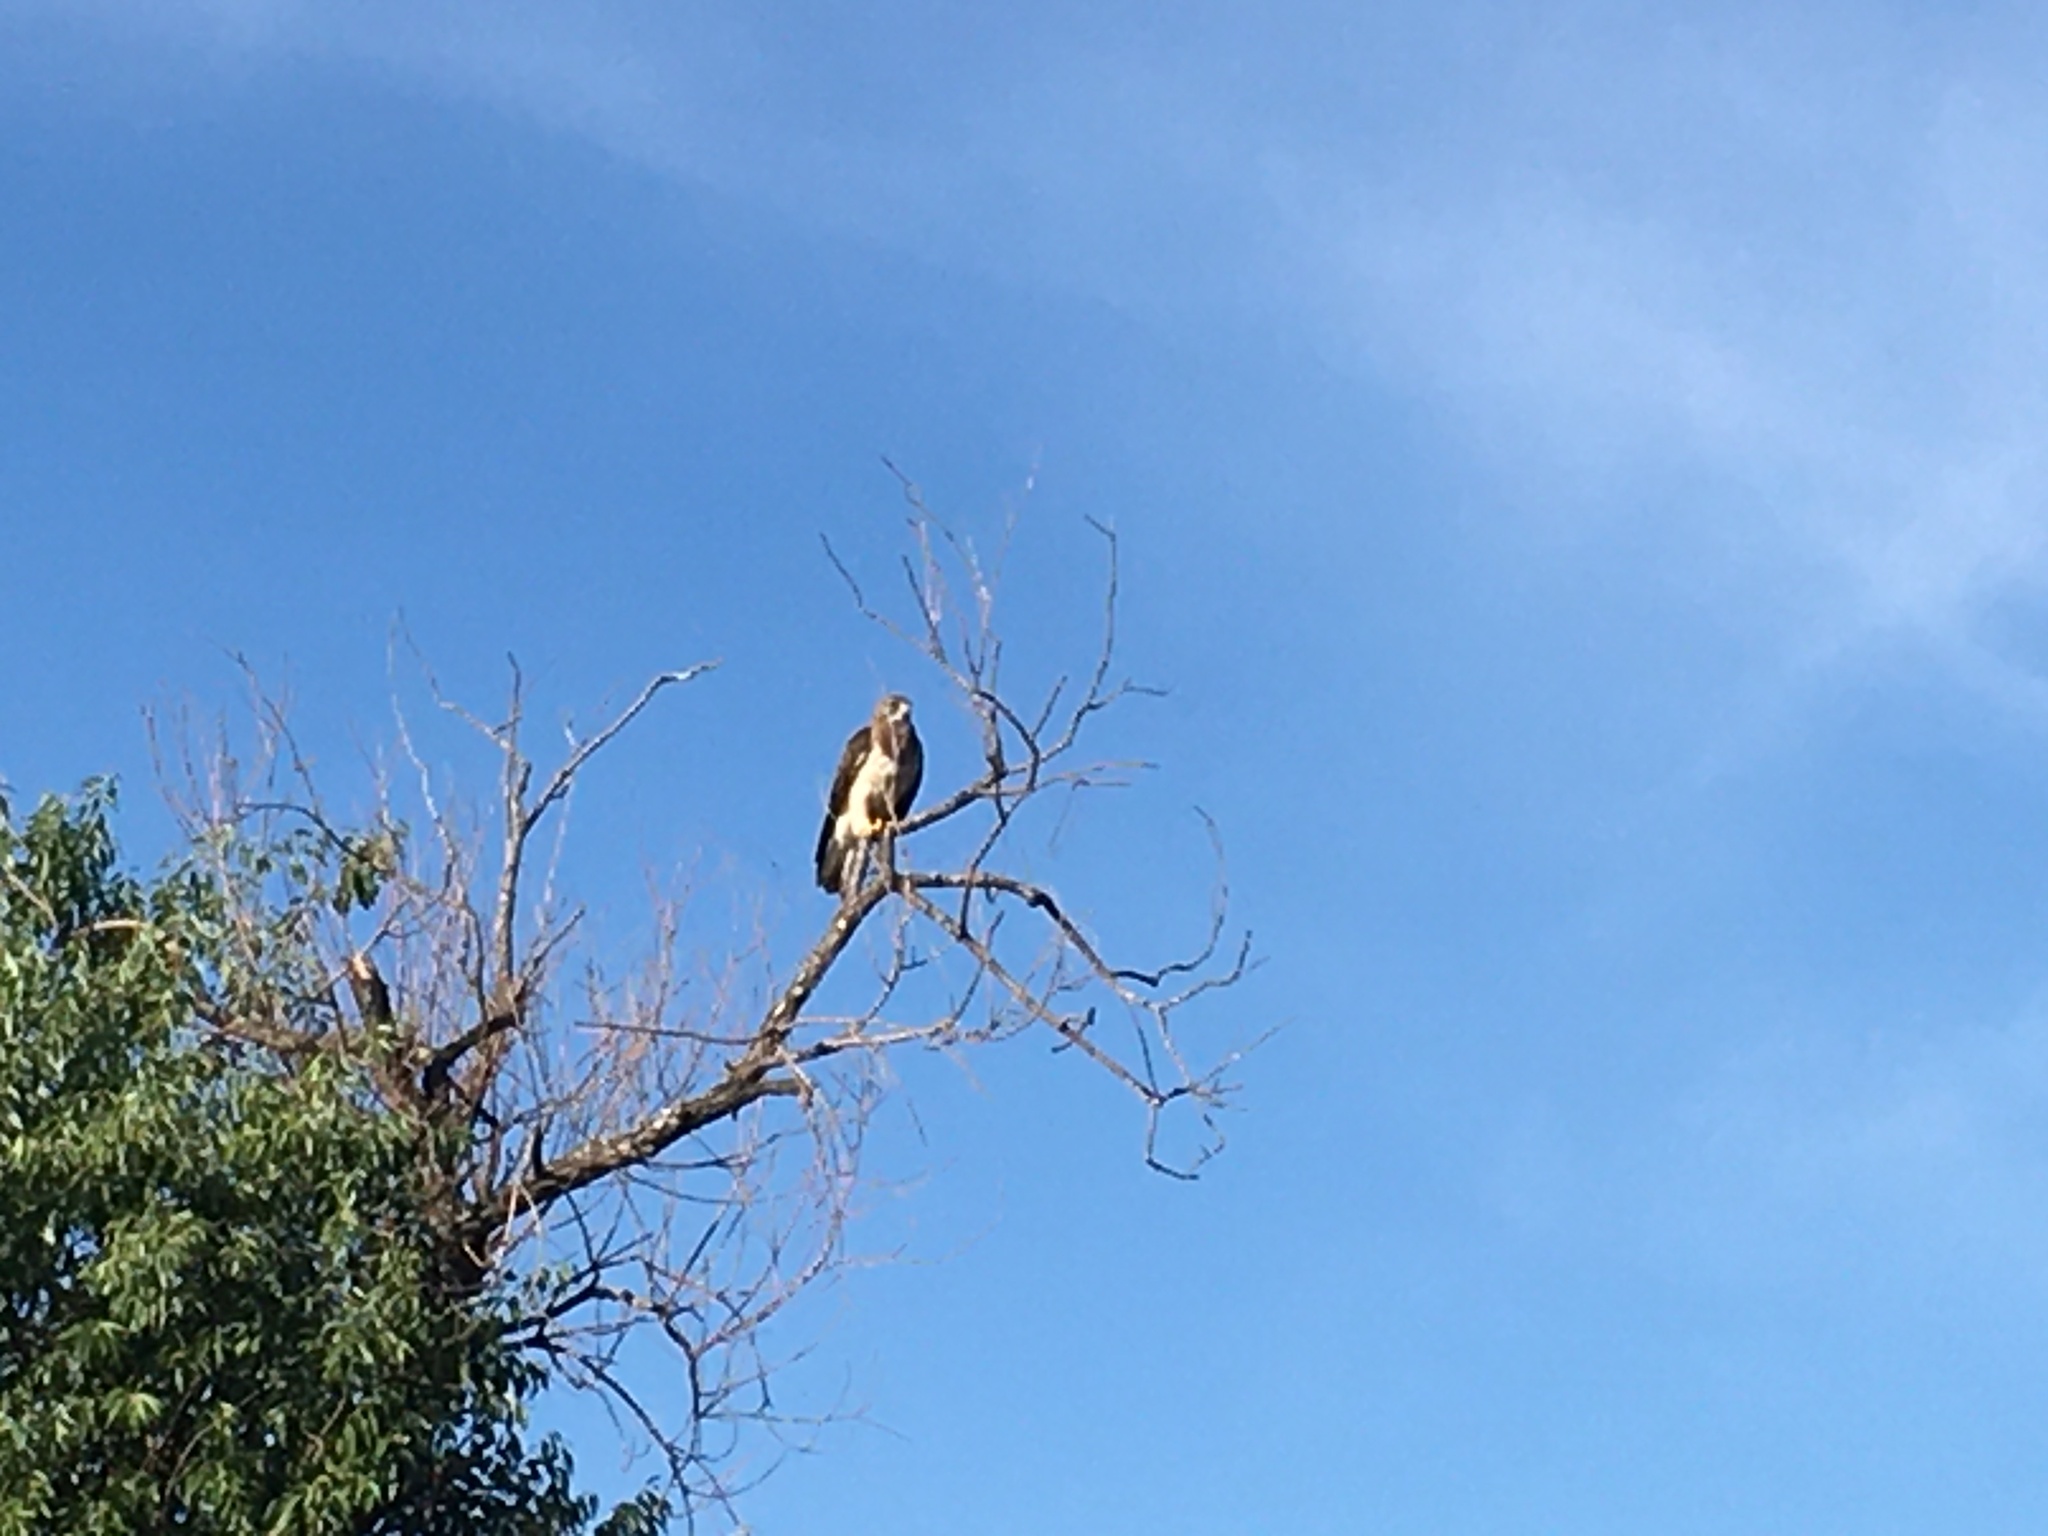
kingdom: Animalia
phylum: Chordata
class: Aves
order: Accipitriformes
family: Accipitridae
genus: Buteo
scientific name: Buteo swainsoni
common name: Swainson's hawk
